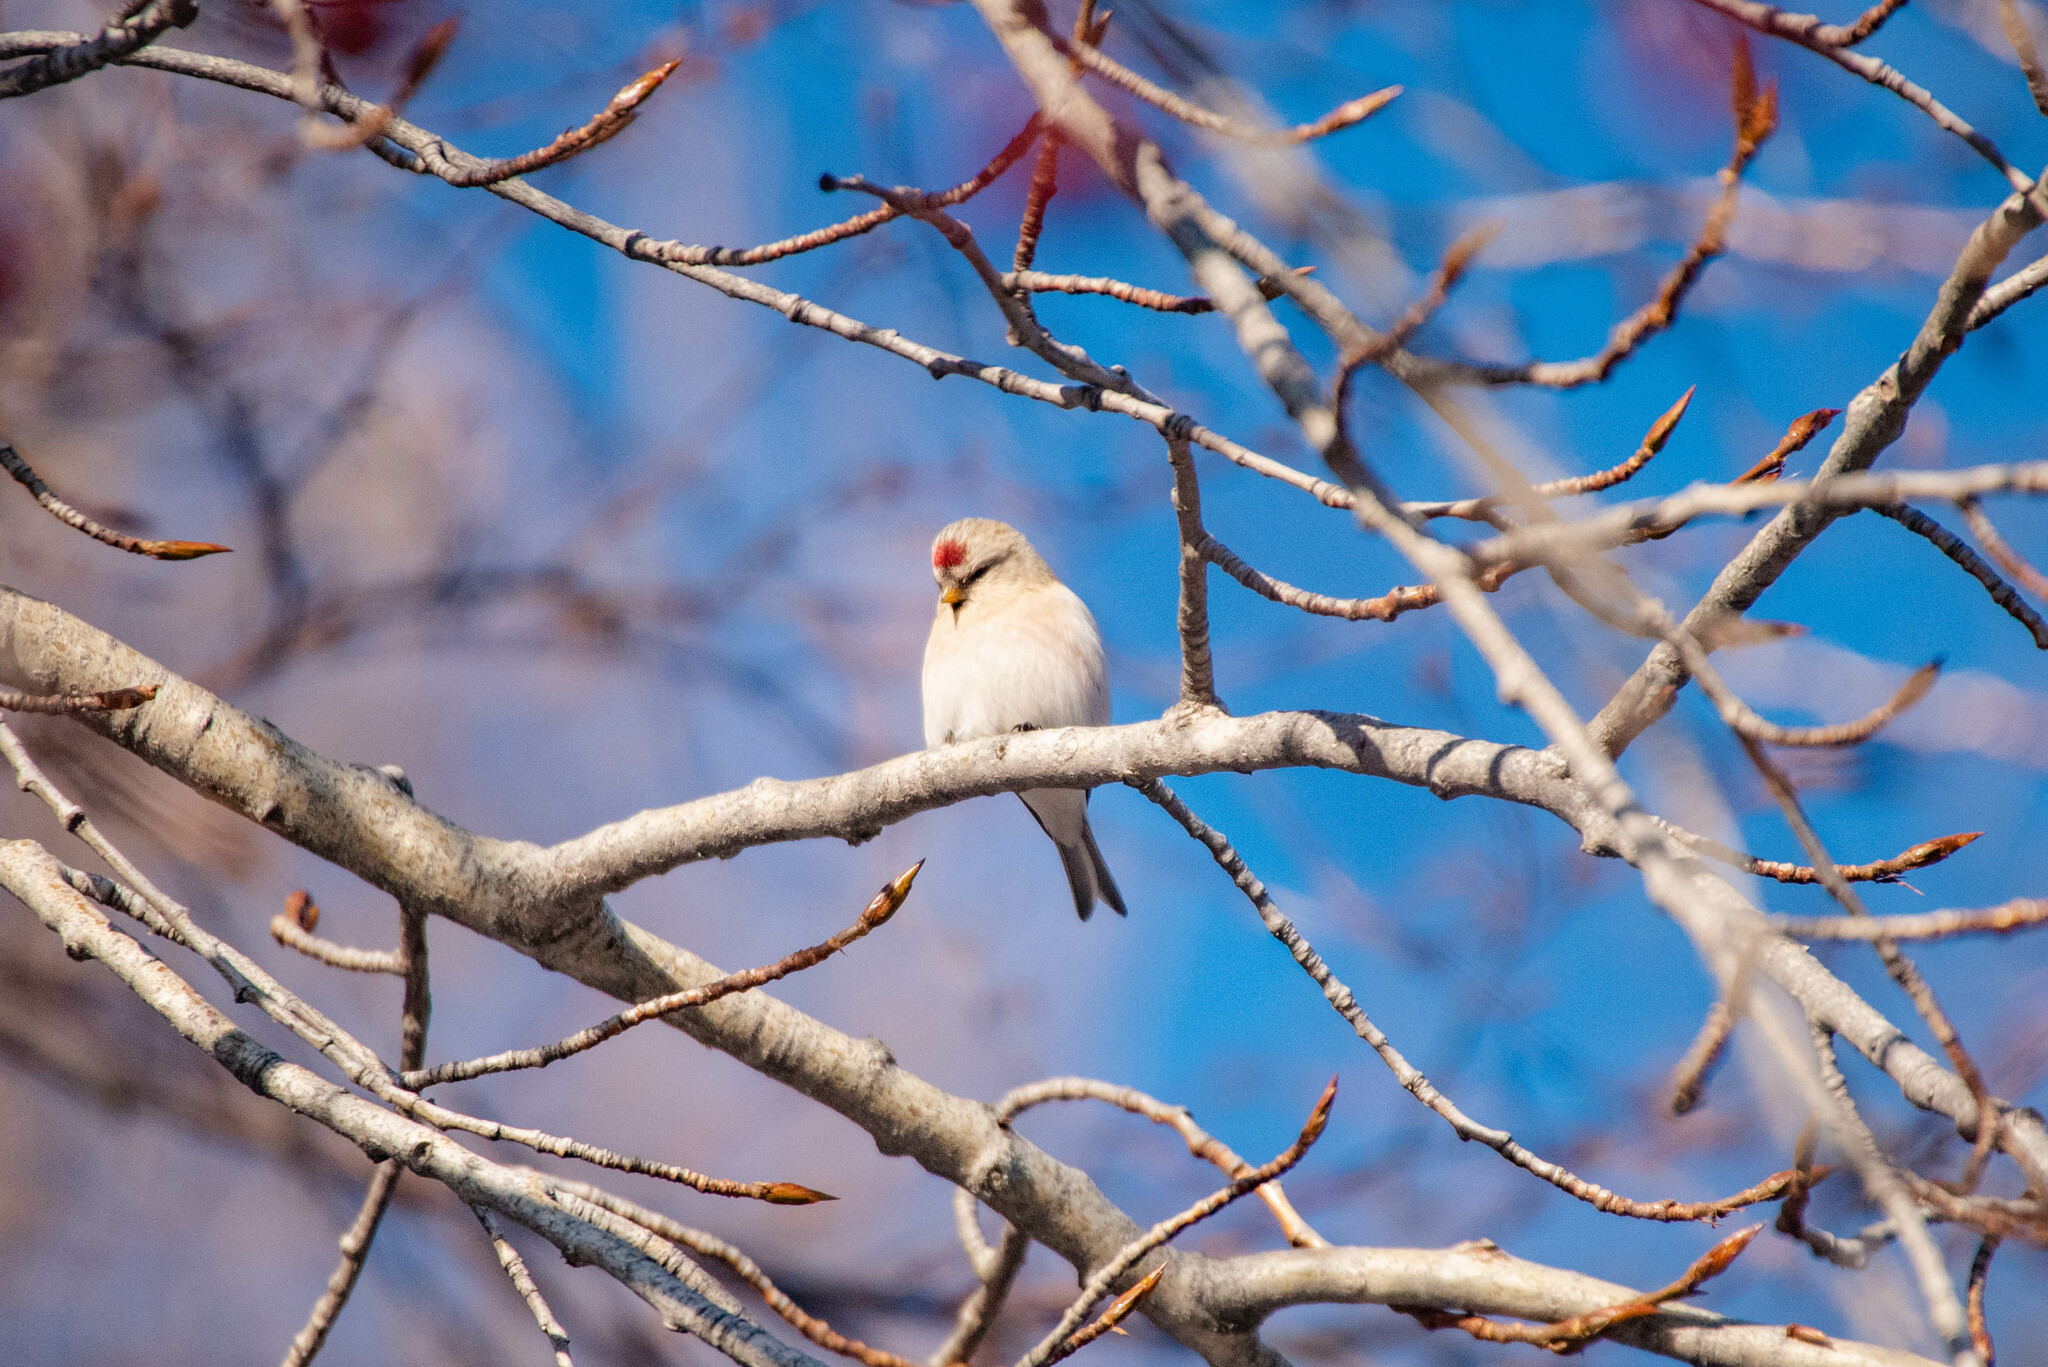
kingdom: Animalia
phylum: Chordata
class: Aves
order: Passeriformes
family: Fringillidae
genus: Acanthis
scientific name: Acanthis hornemanni
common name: Arctic redpoll
